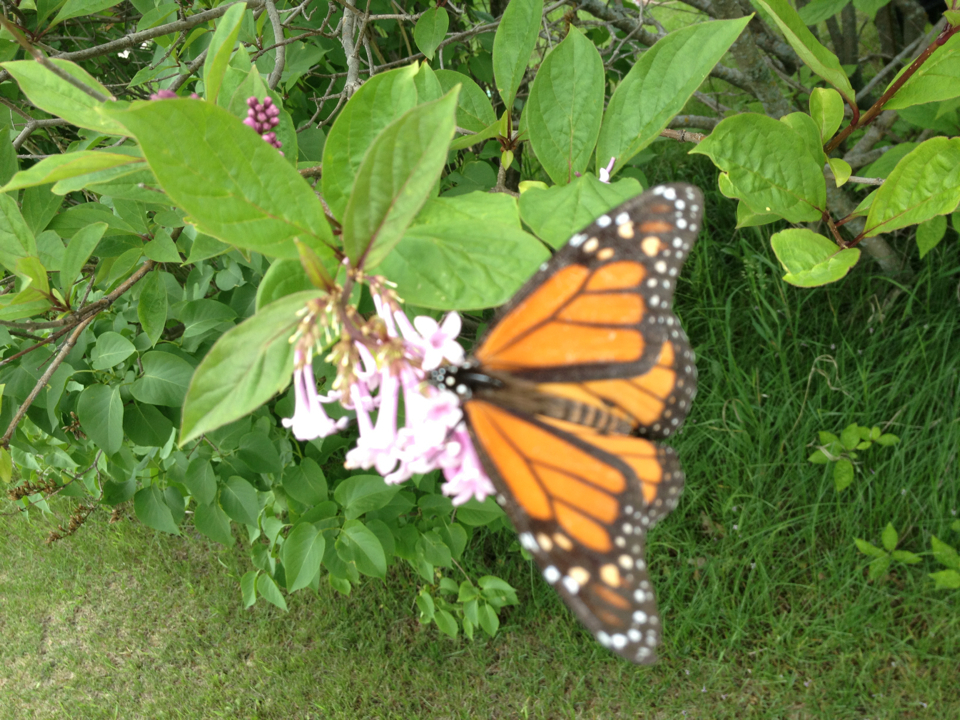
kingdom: Animalia
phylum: Arthropoda
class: Insecta
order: Lepidoptera
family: Nymphalidae
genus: Danaus
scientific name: Danaus plexippus
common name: Monarch
